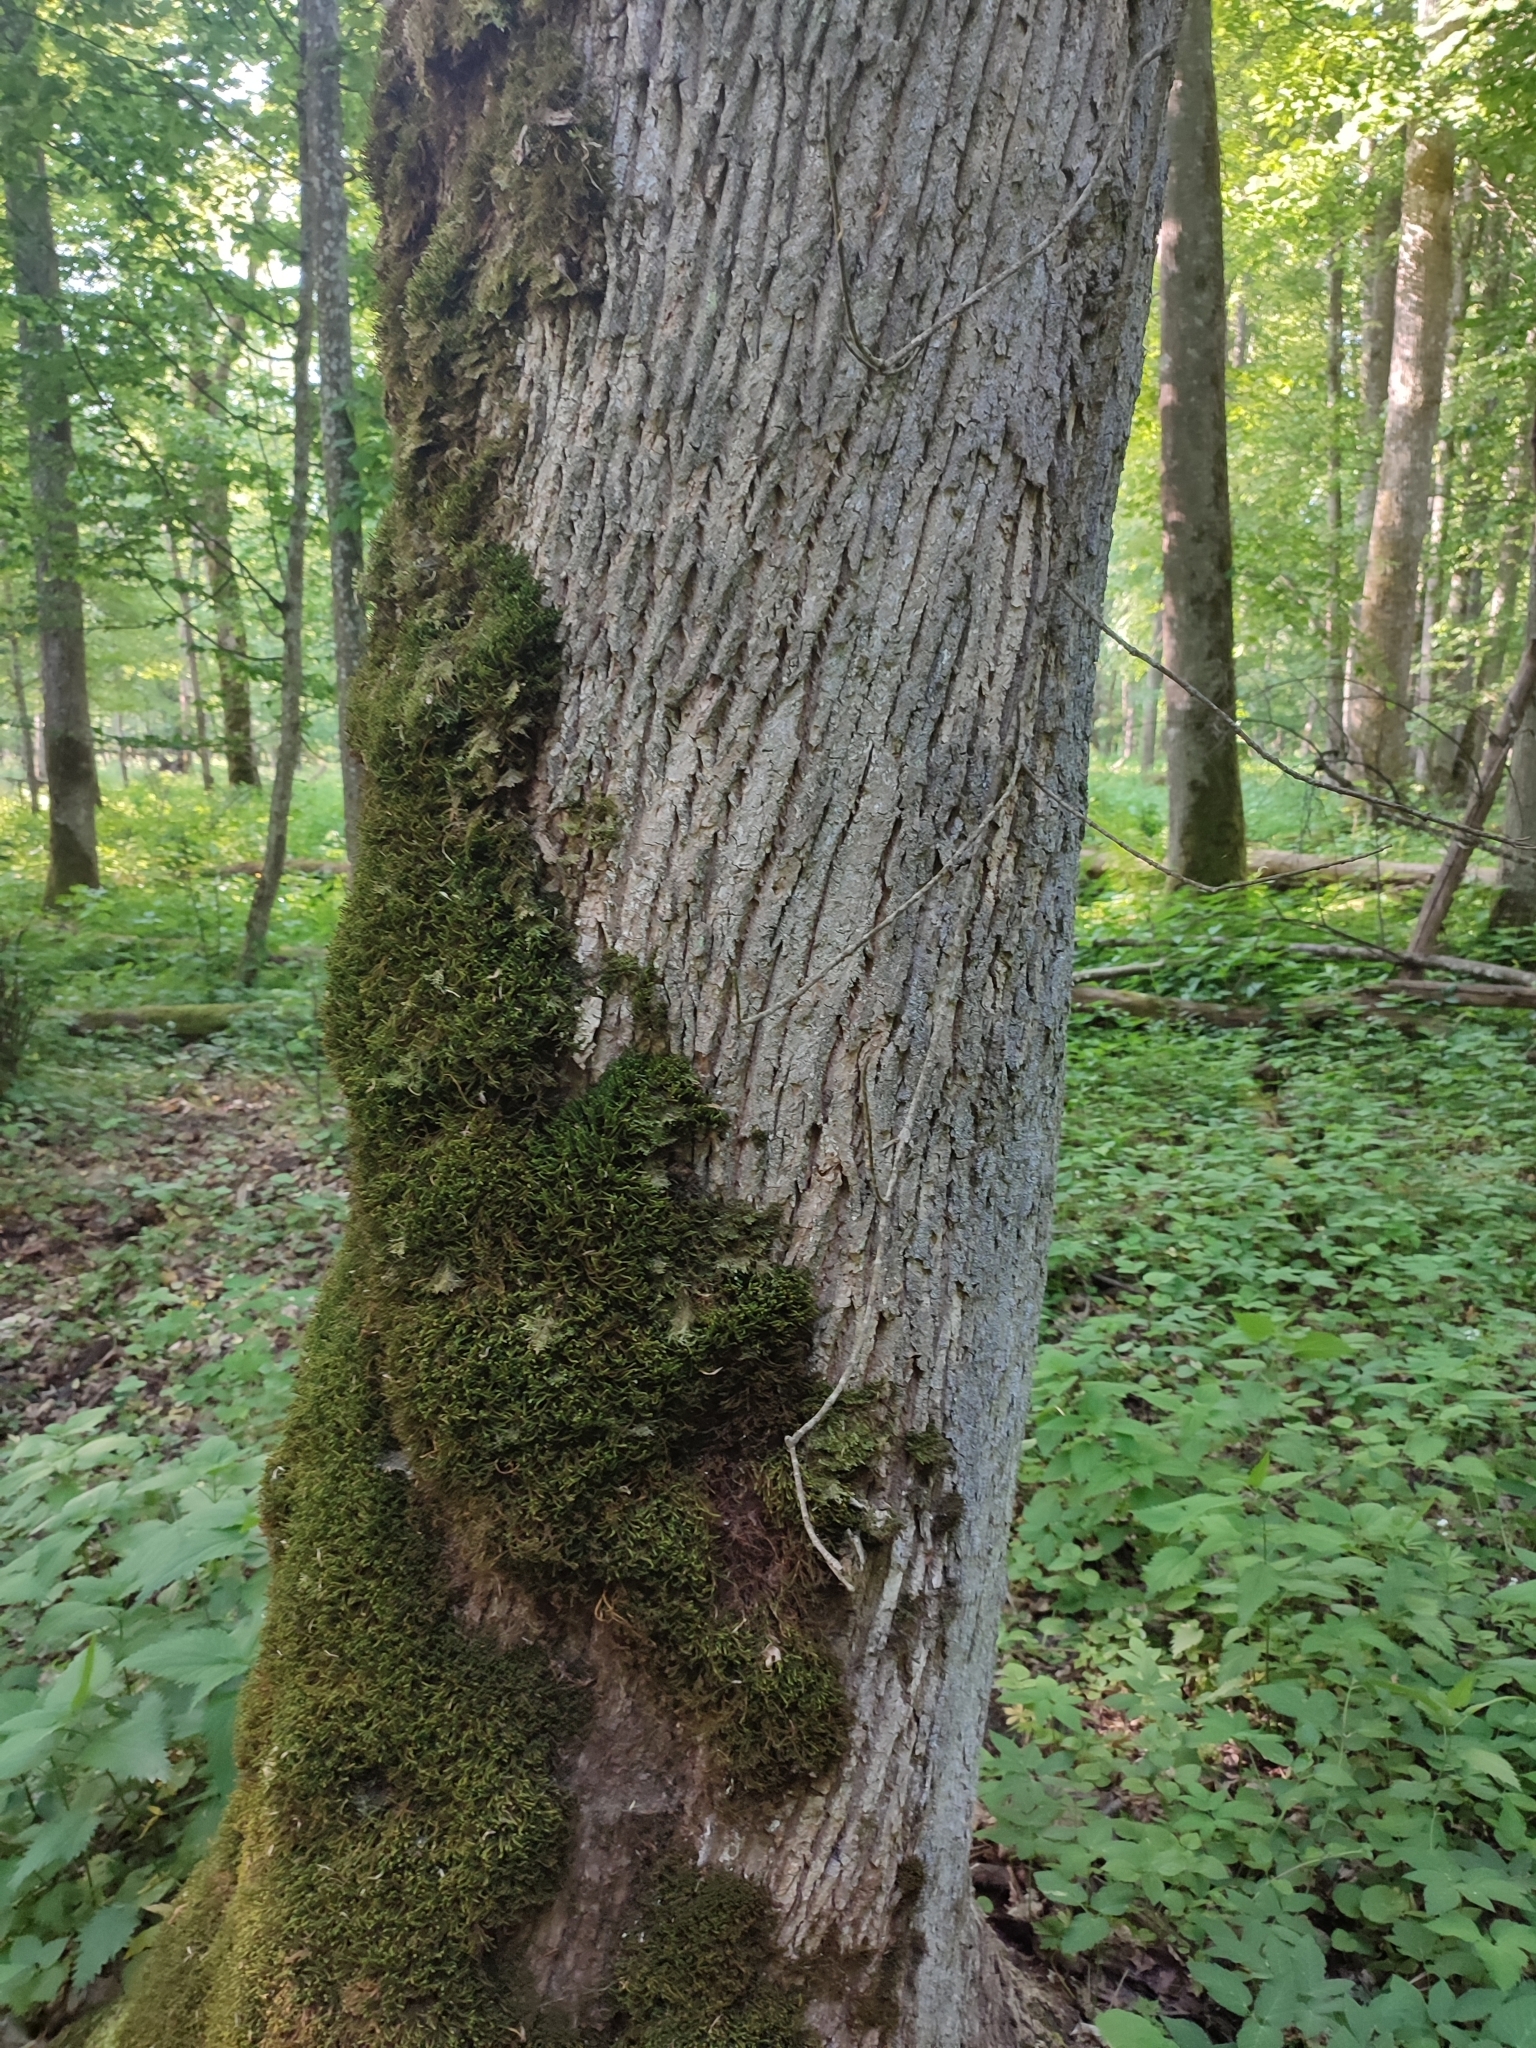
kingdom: Plantae
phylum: Tracheophyta
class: Magnoliopsida
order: Sapindales
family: Sapindaceae
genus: Acer
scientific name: Acer platanoides
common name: Norway maple
